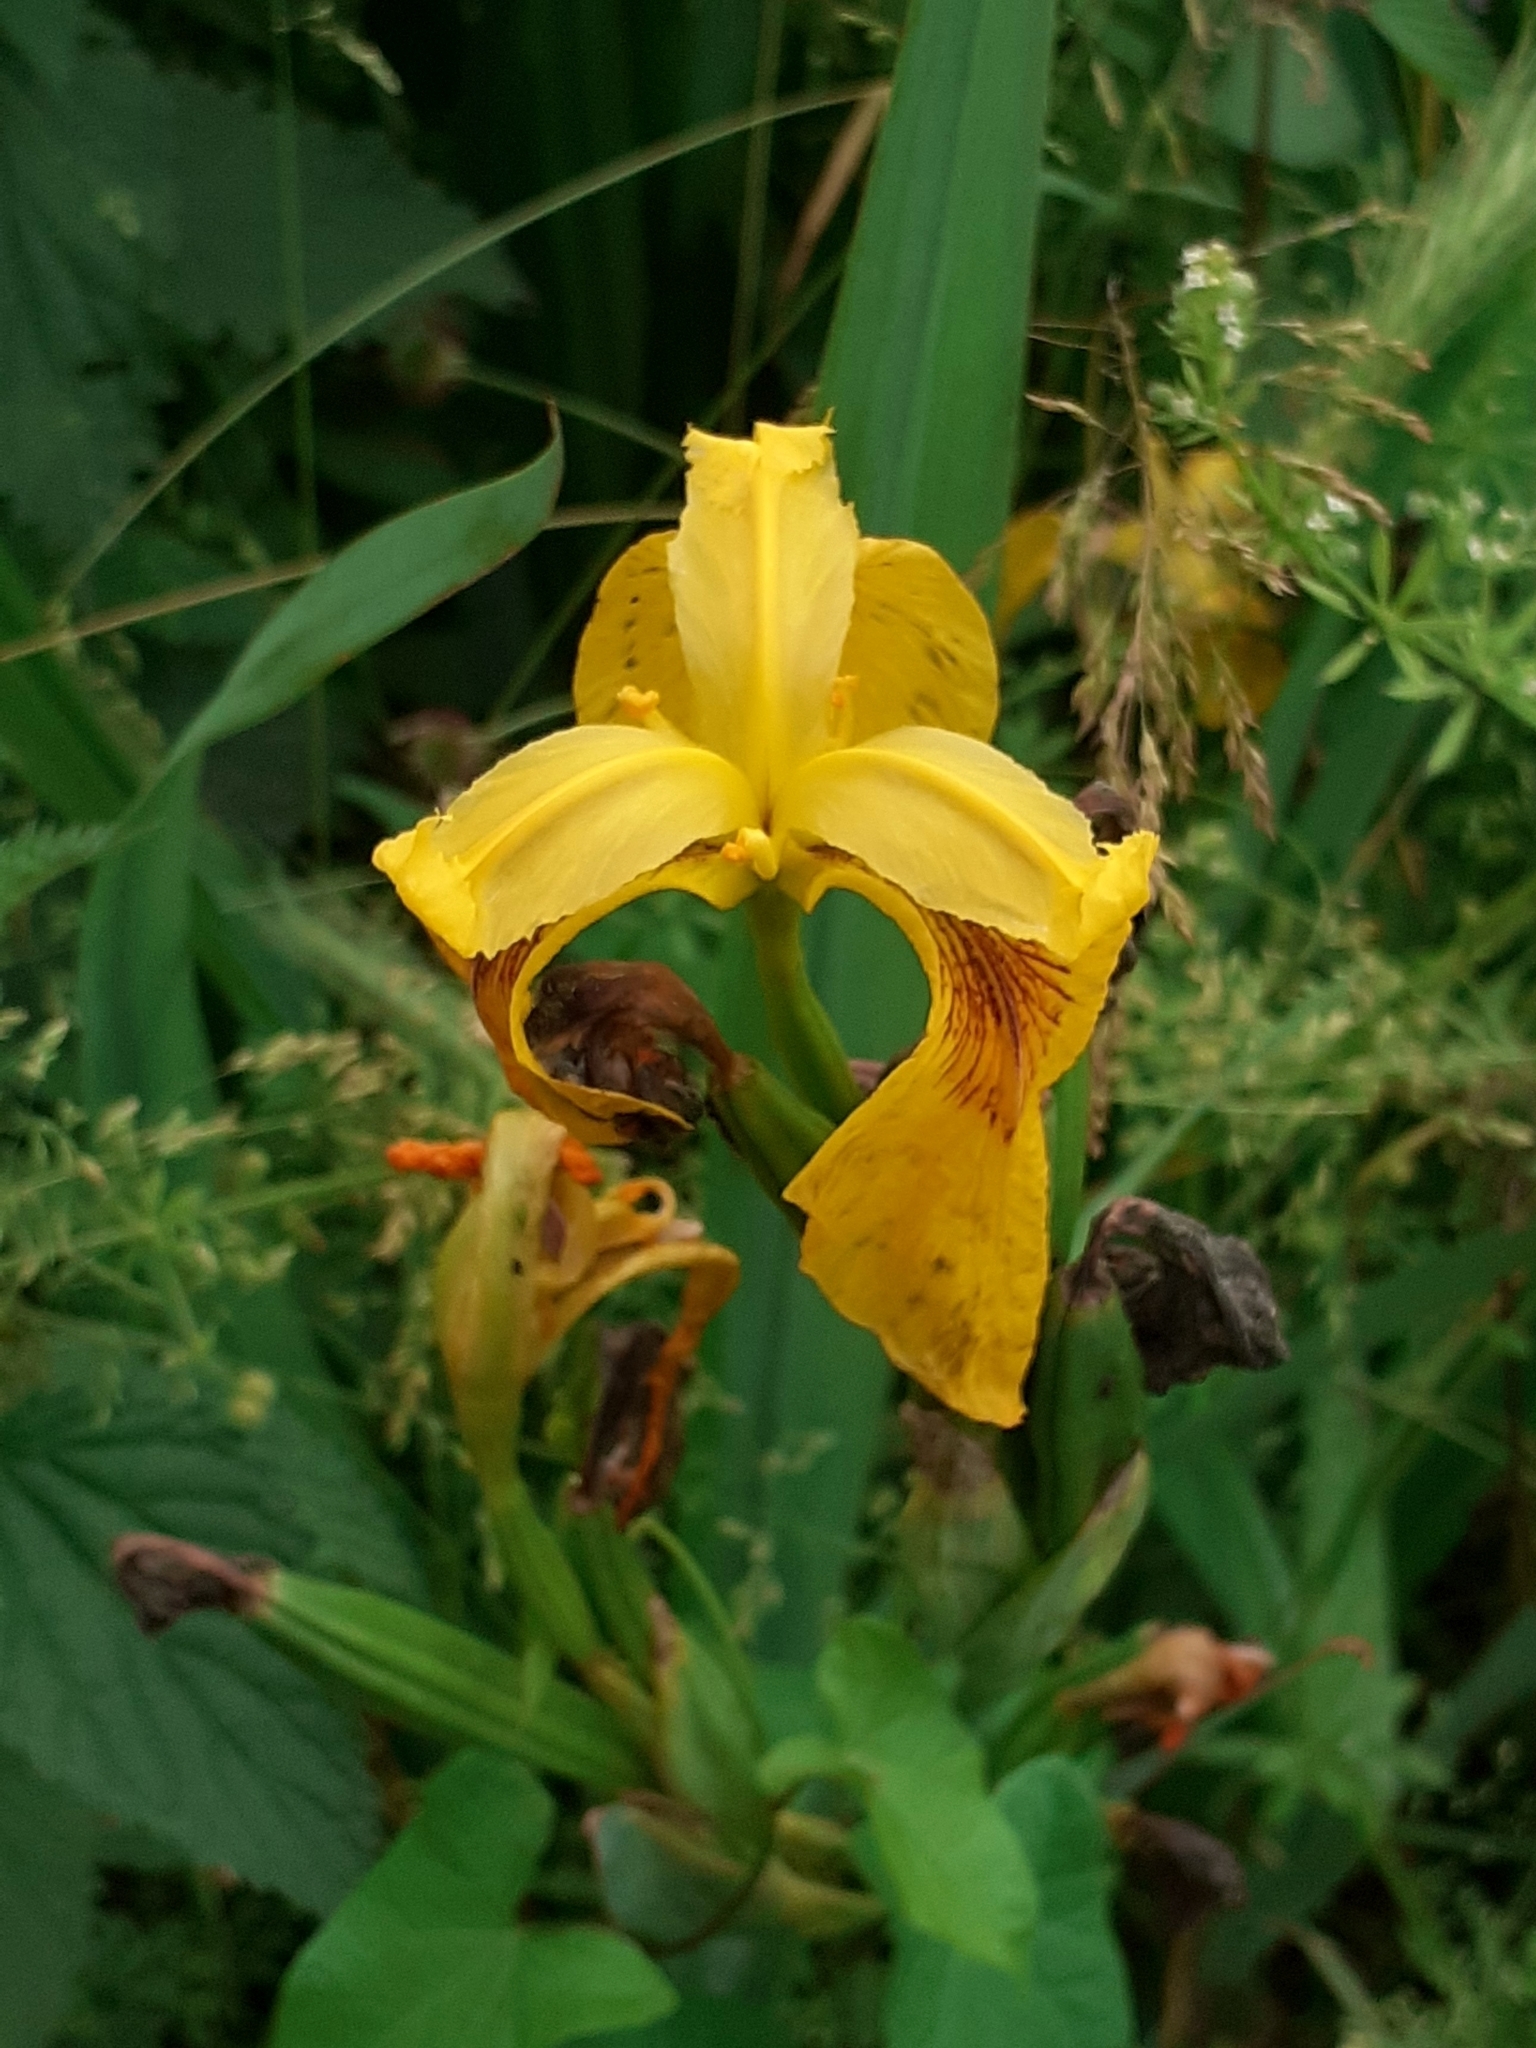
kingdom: Plantae
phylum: Tracheophyta
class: Liliopsida
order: Asparagales
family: Iridaceae
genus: Iris
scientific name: Iris pseudacorus
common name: Yellow flag
